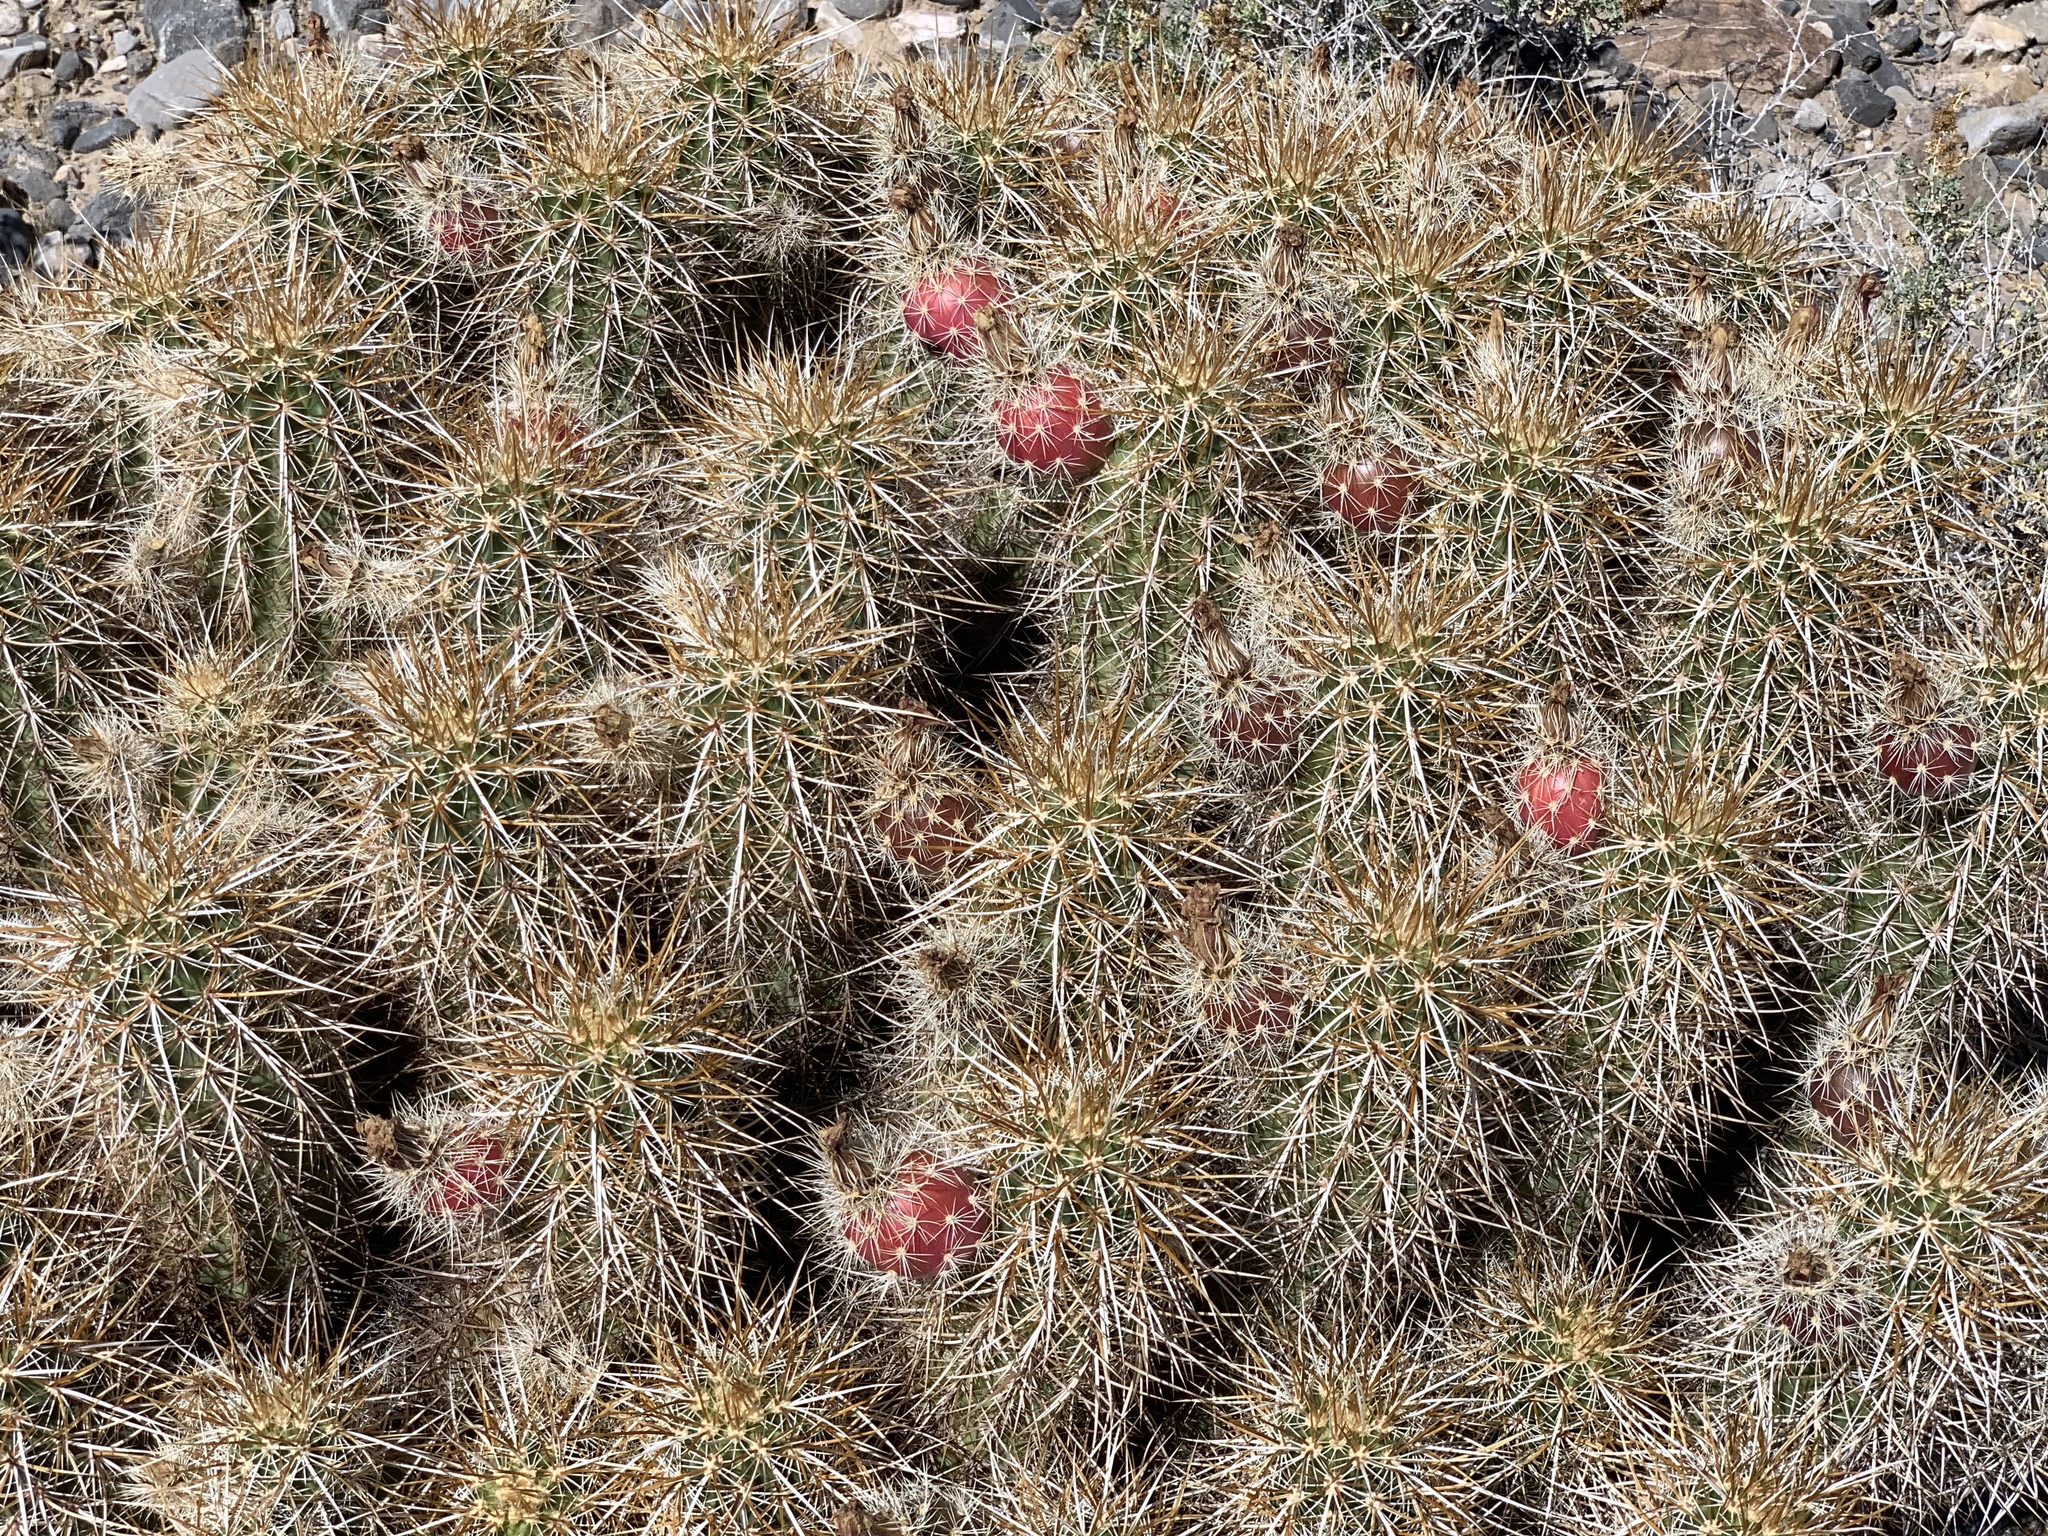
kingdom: Plantae
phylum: Tracheophyta
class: Magnoliopsida
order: Caryophyllales
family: Cactaceae
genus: Echinocereus
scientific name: Echinocereus engelmannii
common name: Engelmann's hedgehog cactus
